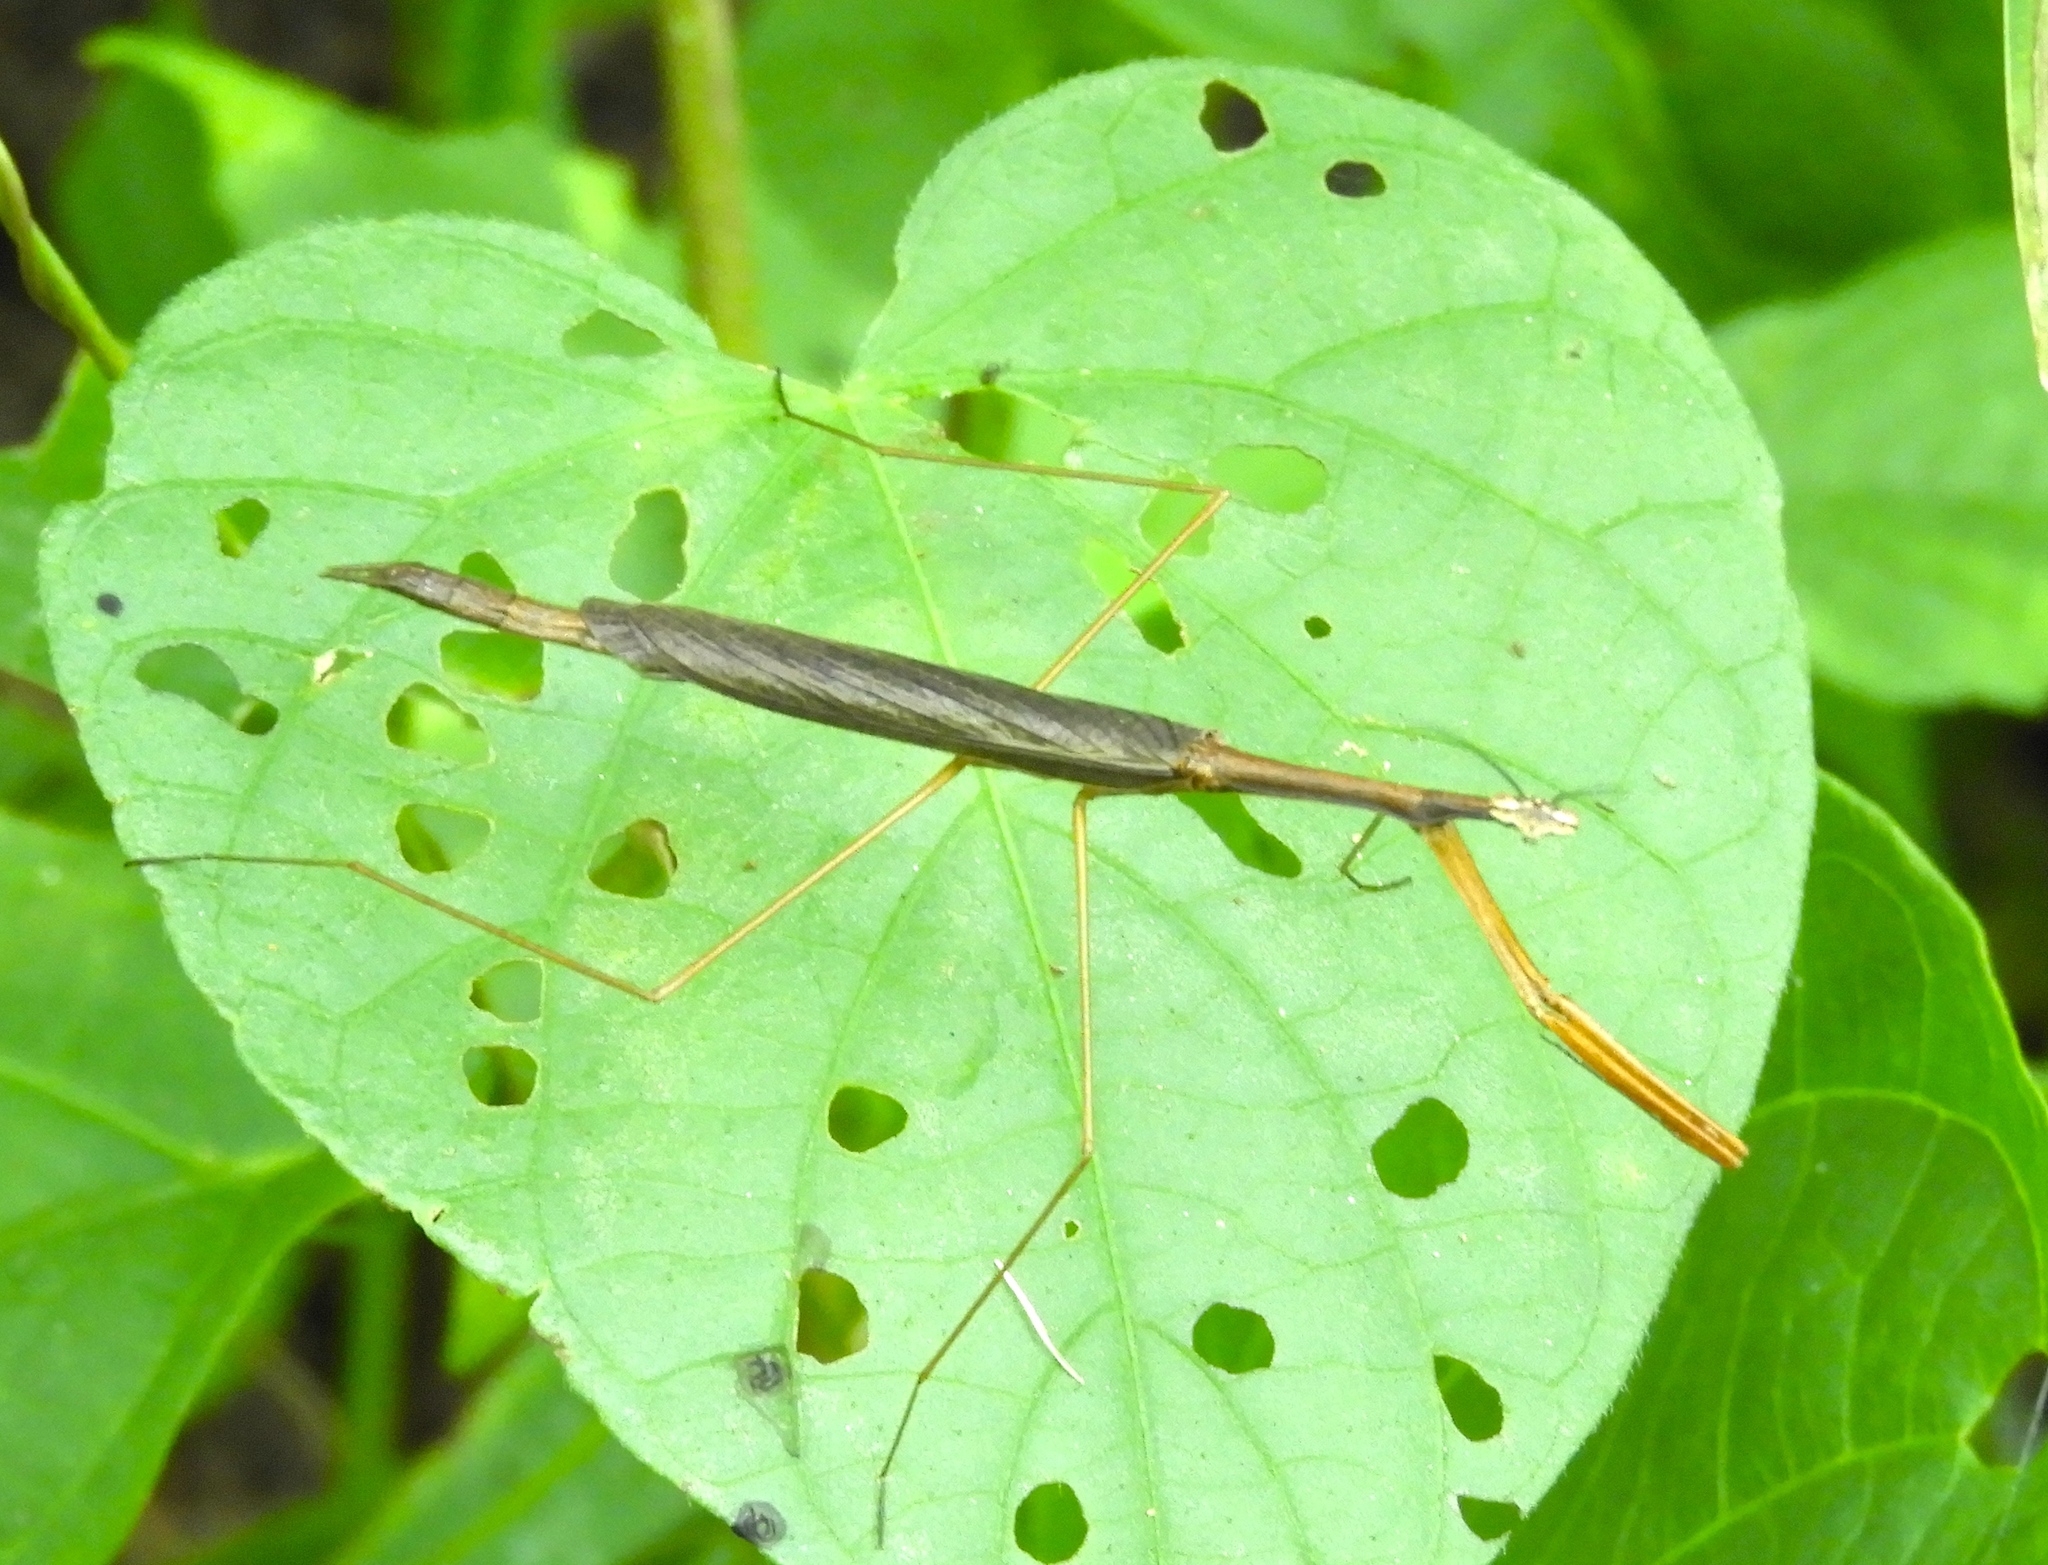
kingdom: Animalia
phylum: Arthropoda
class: Insecta
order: Mantodea
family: Thespidae
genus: Bistanta
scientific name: Bistanta mexicana
